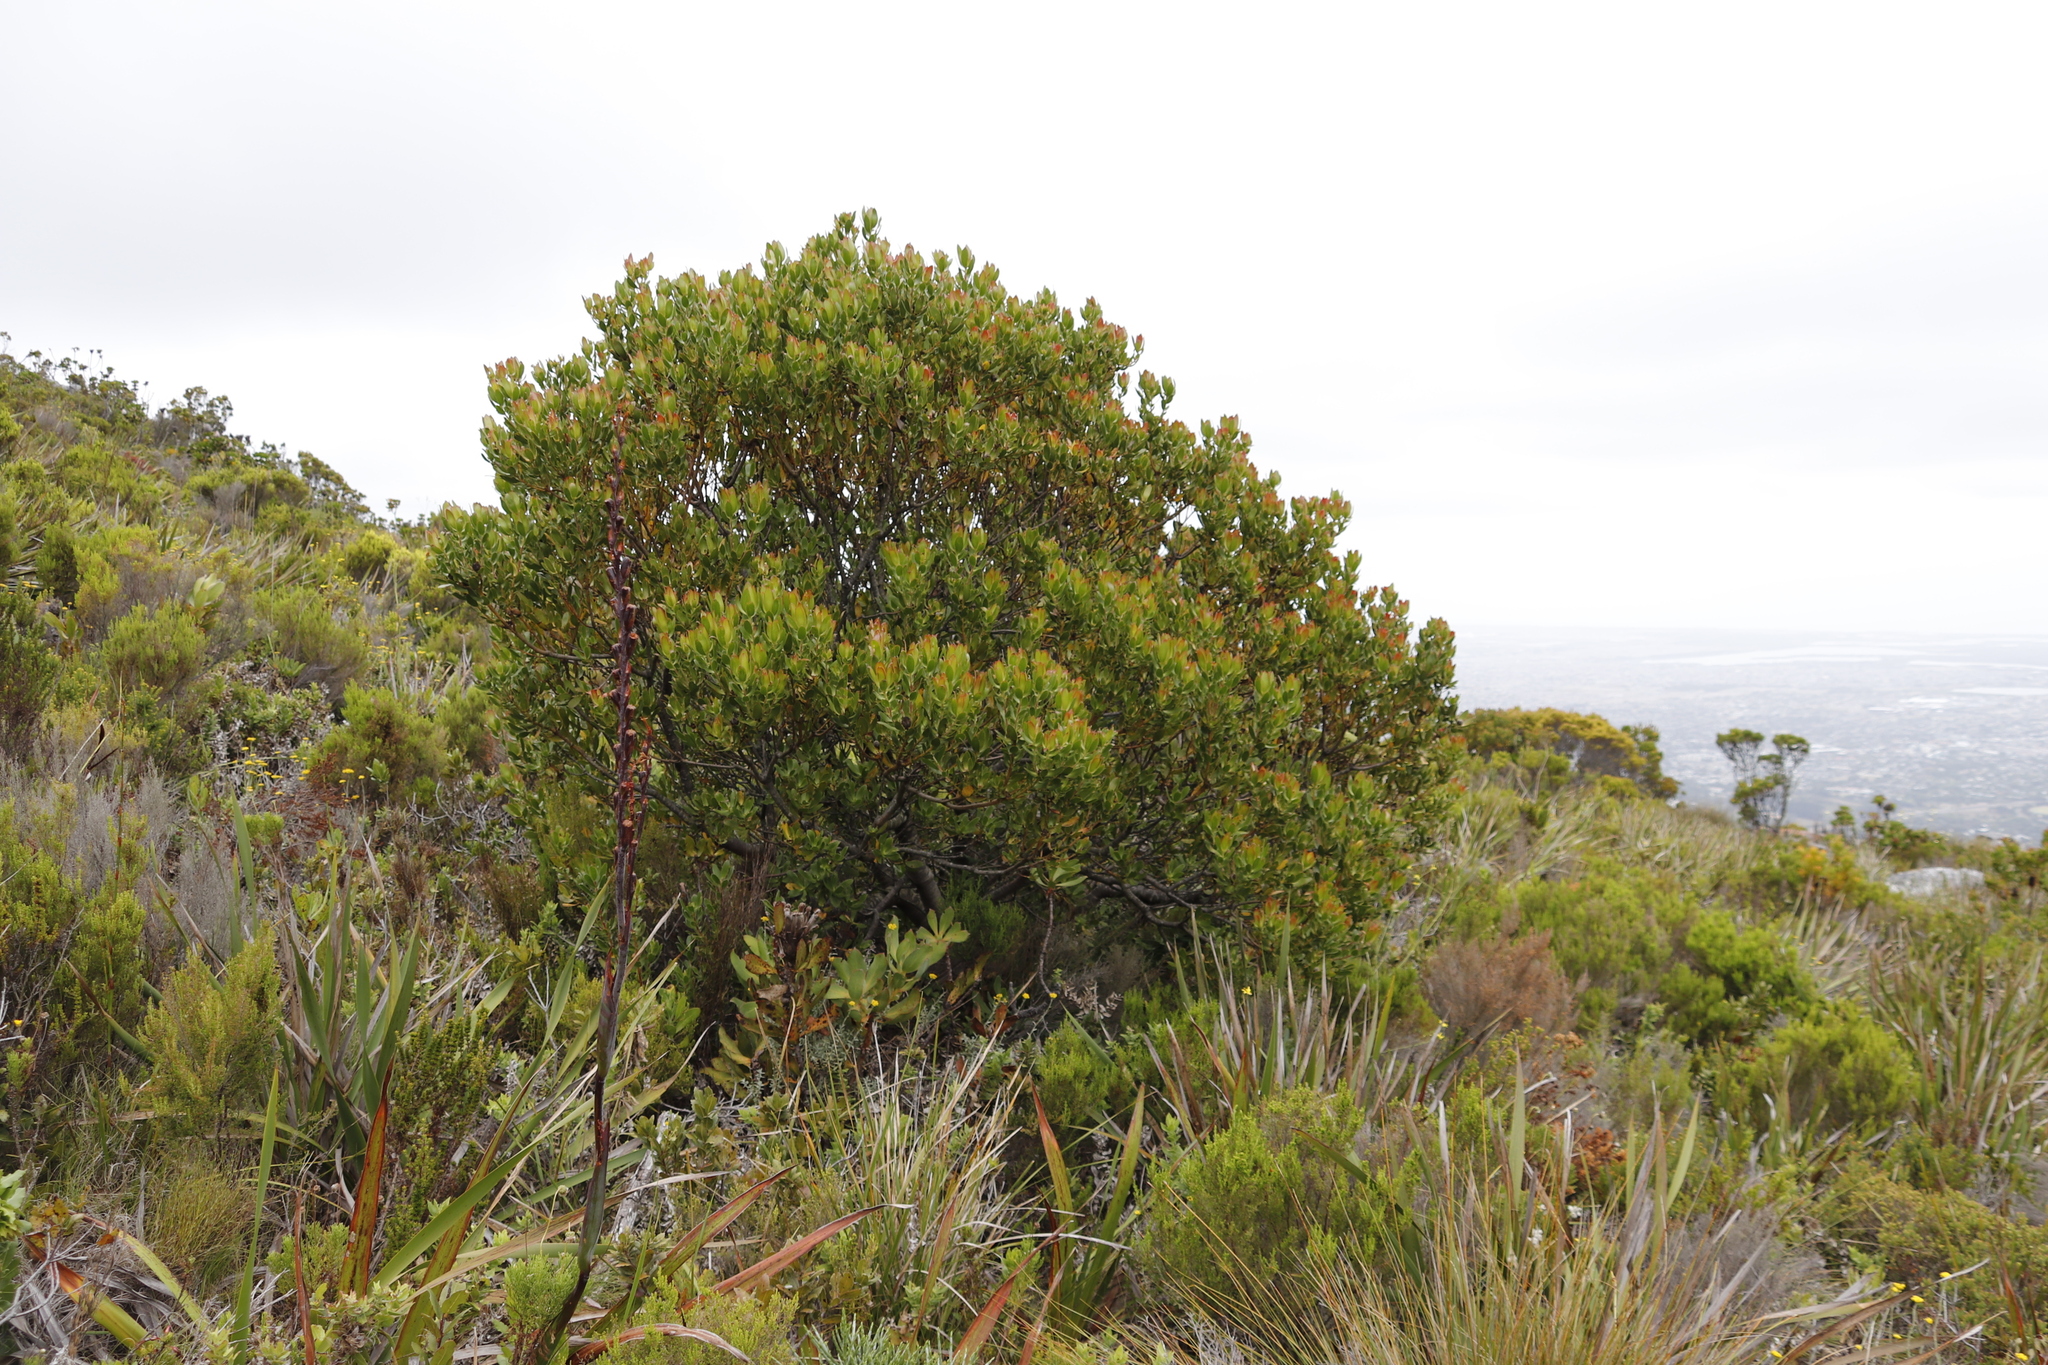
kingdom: Plantae
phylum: Tracheophyta
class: Magnoliopsida
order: Proteales
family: Proteaceae
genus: Leucadendron
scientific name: Leucadendron strobilinum
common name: Mountain rose
